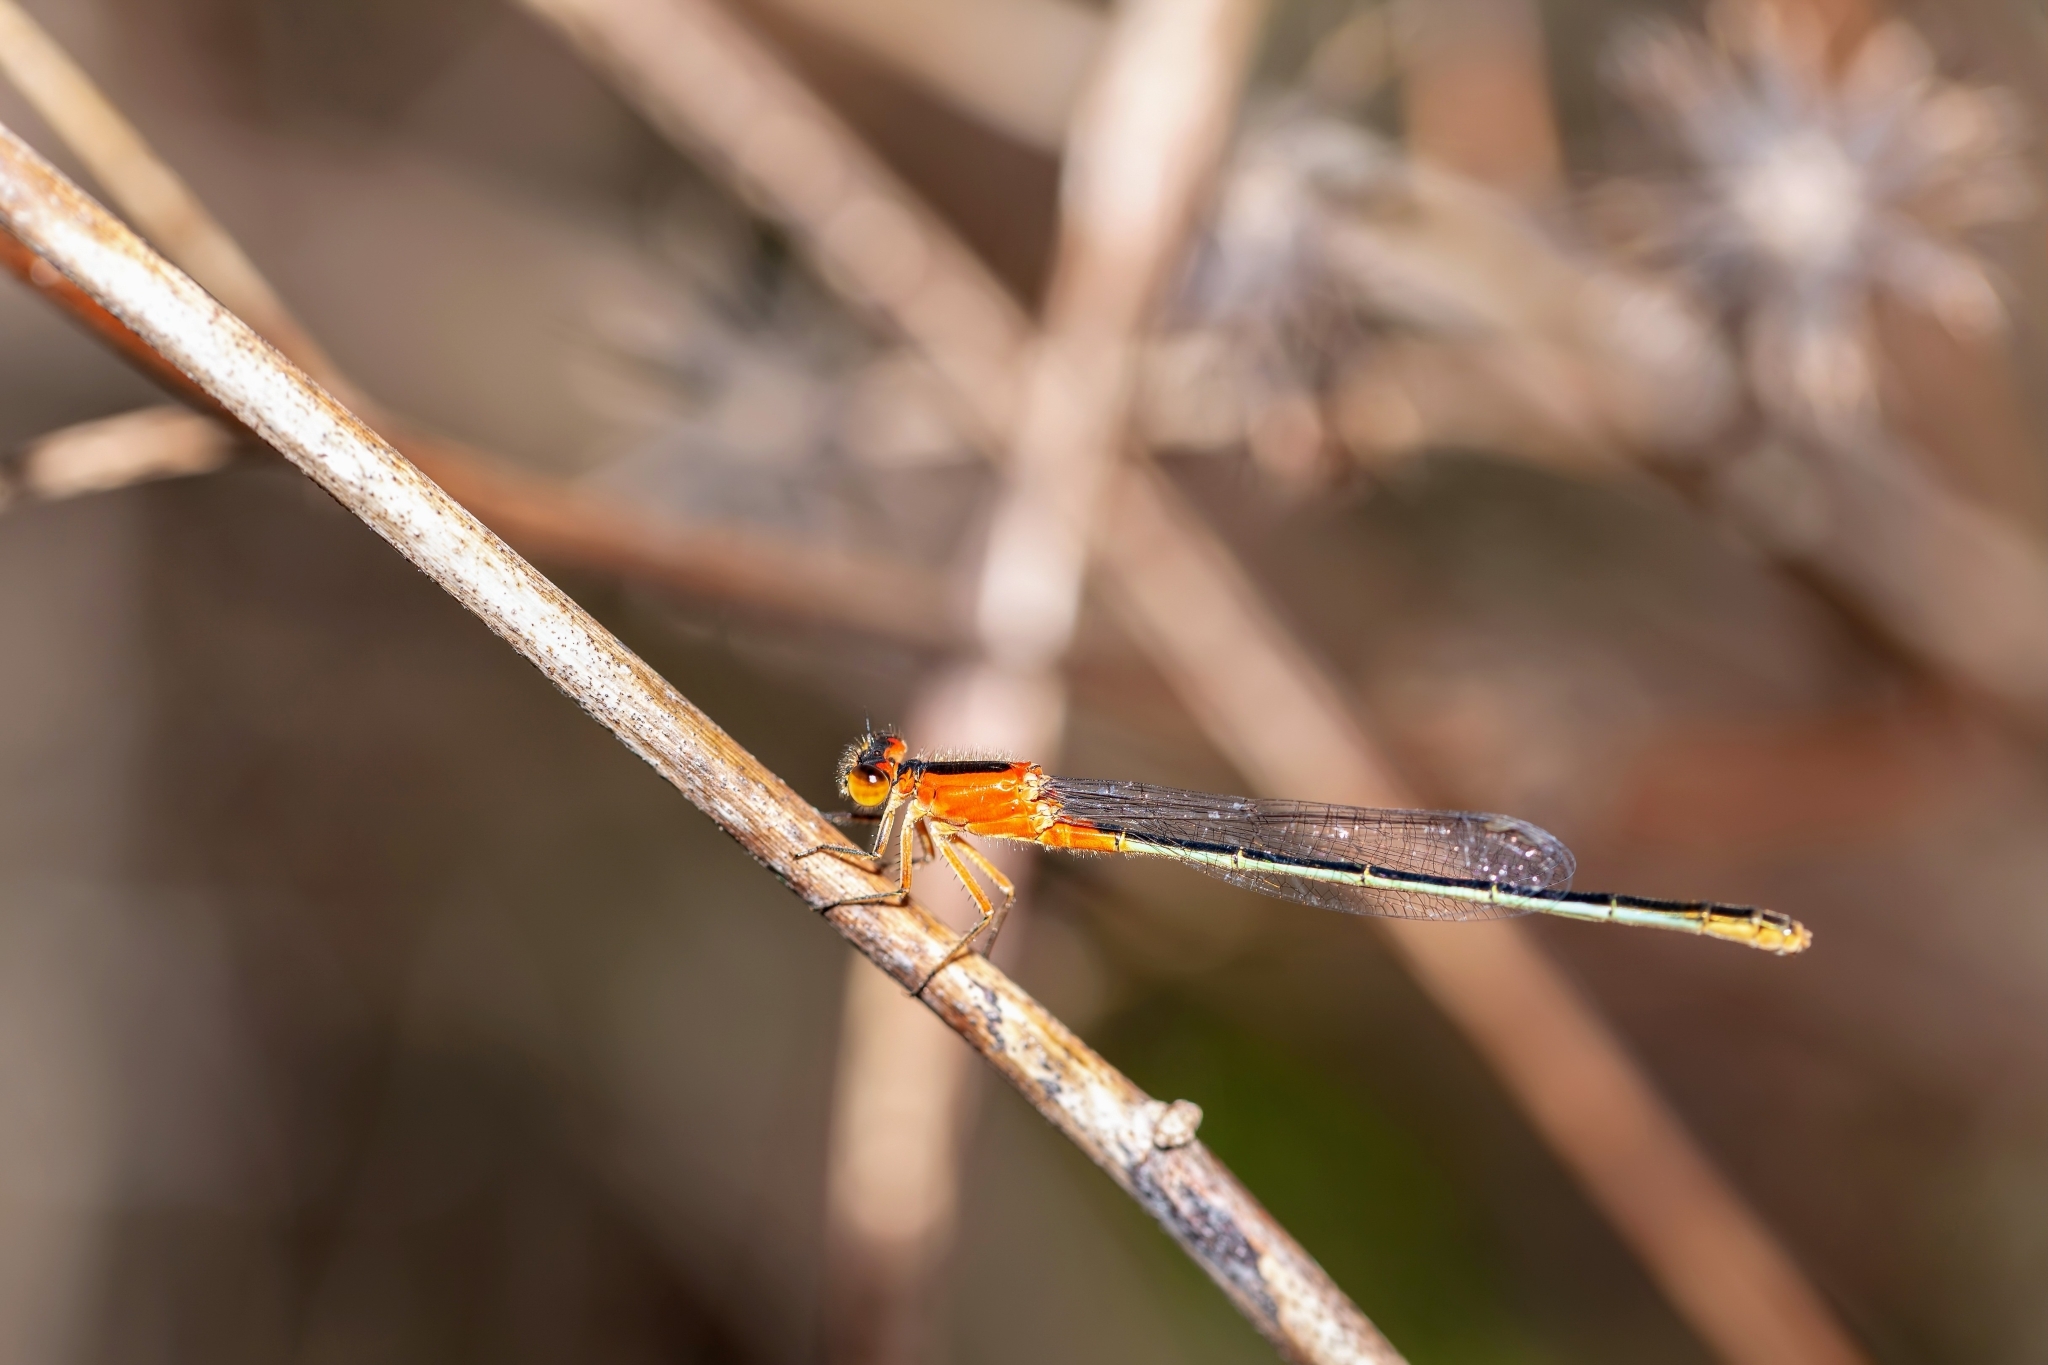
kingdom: Animalia
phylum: Arthropoda
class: Insecta
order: Odonata
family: Coenagrionidae
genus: Ischnura
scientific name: Ischnura ramburii
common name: Rambur's forktail
